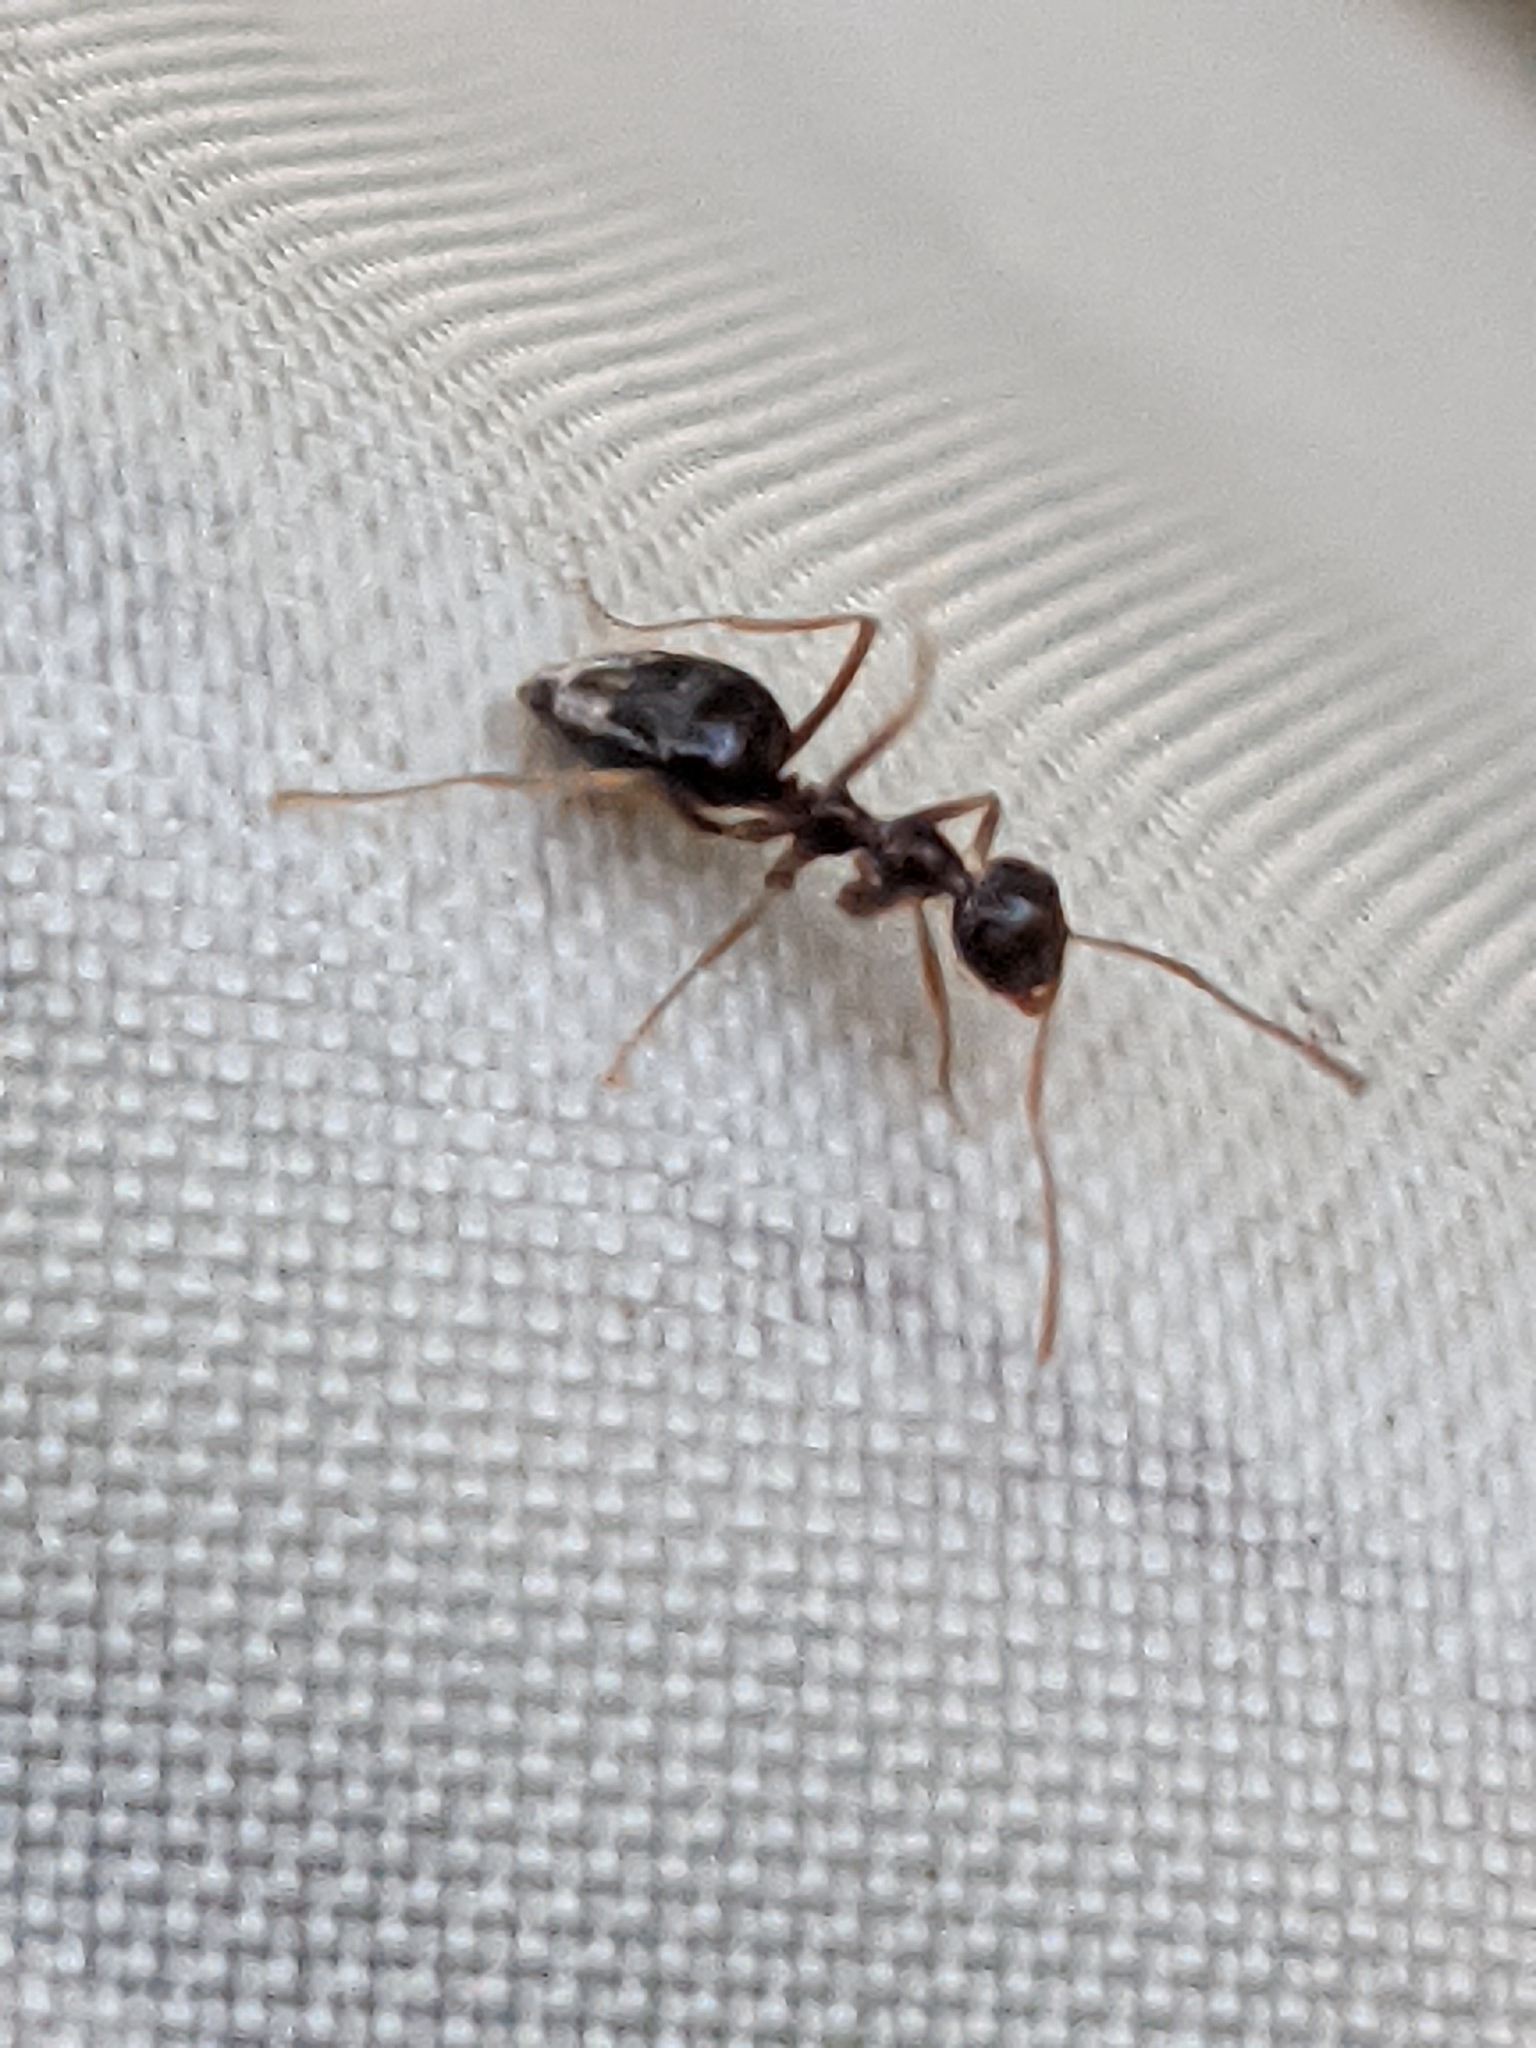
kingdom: Animalia
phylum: Arthropoda
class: Insecta
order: Hymenoptera
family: Formicidae
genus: Prenolepis
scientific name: Prenolepis imparis
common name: Small honey ant
